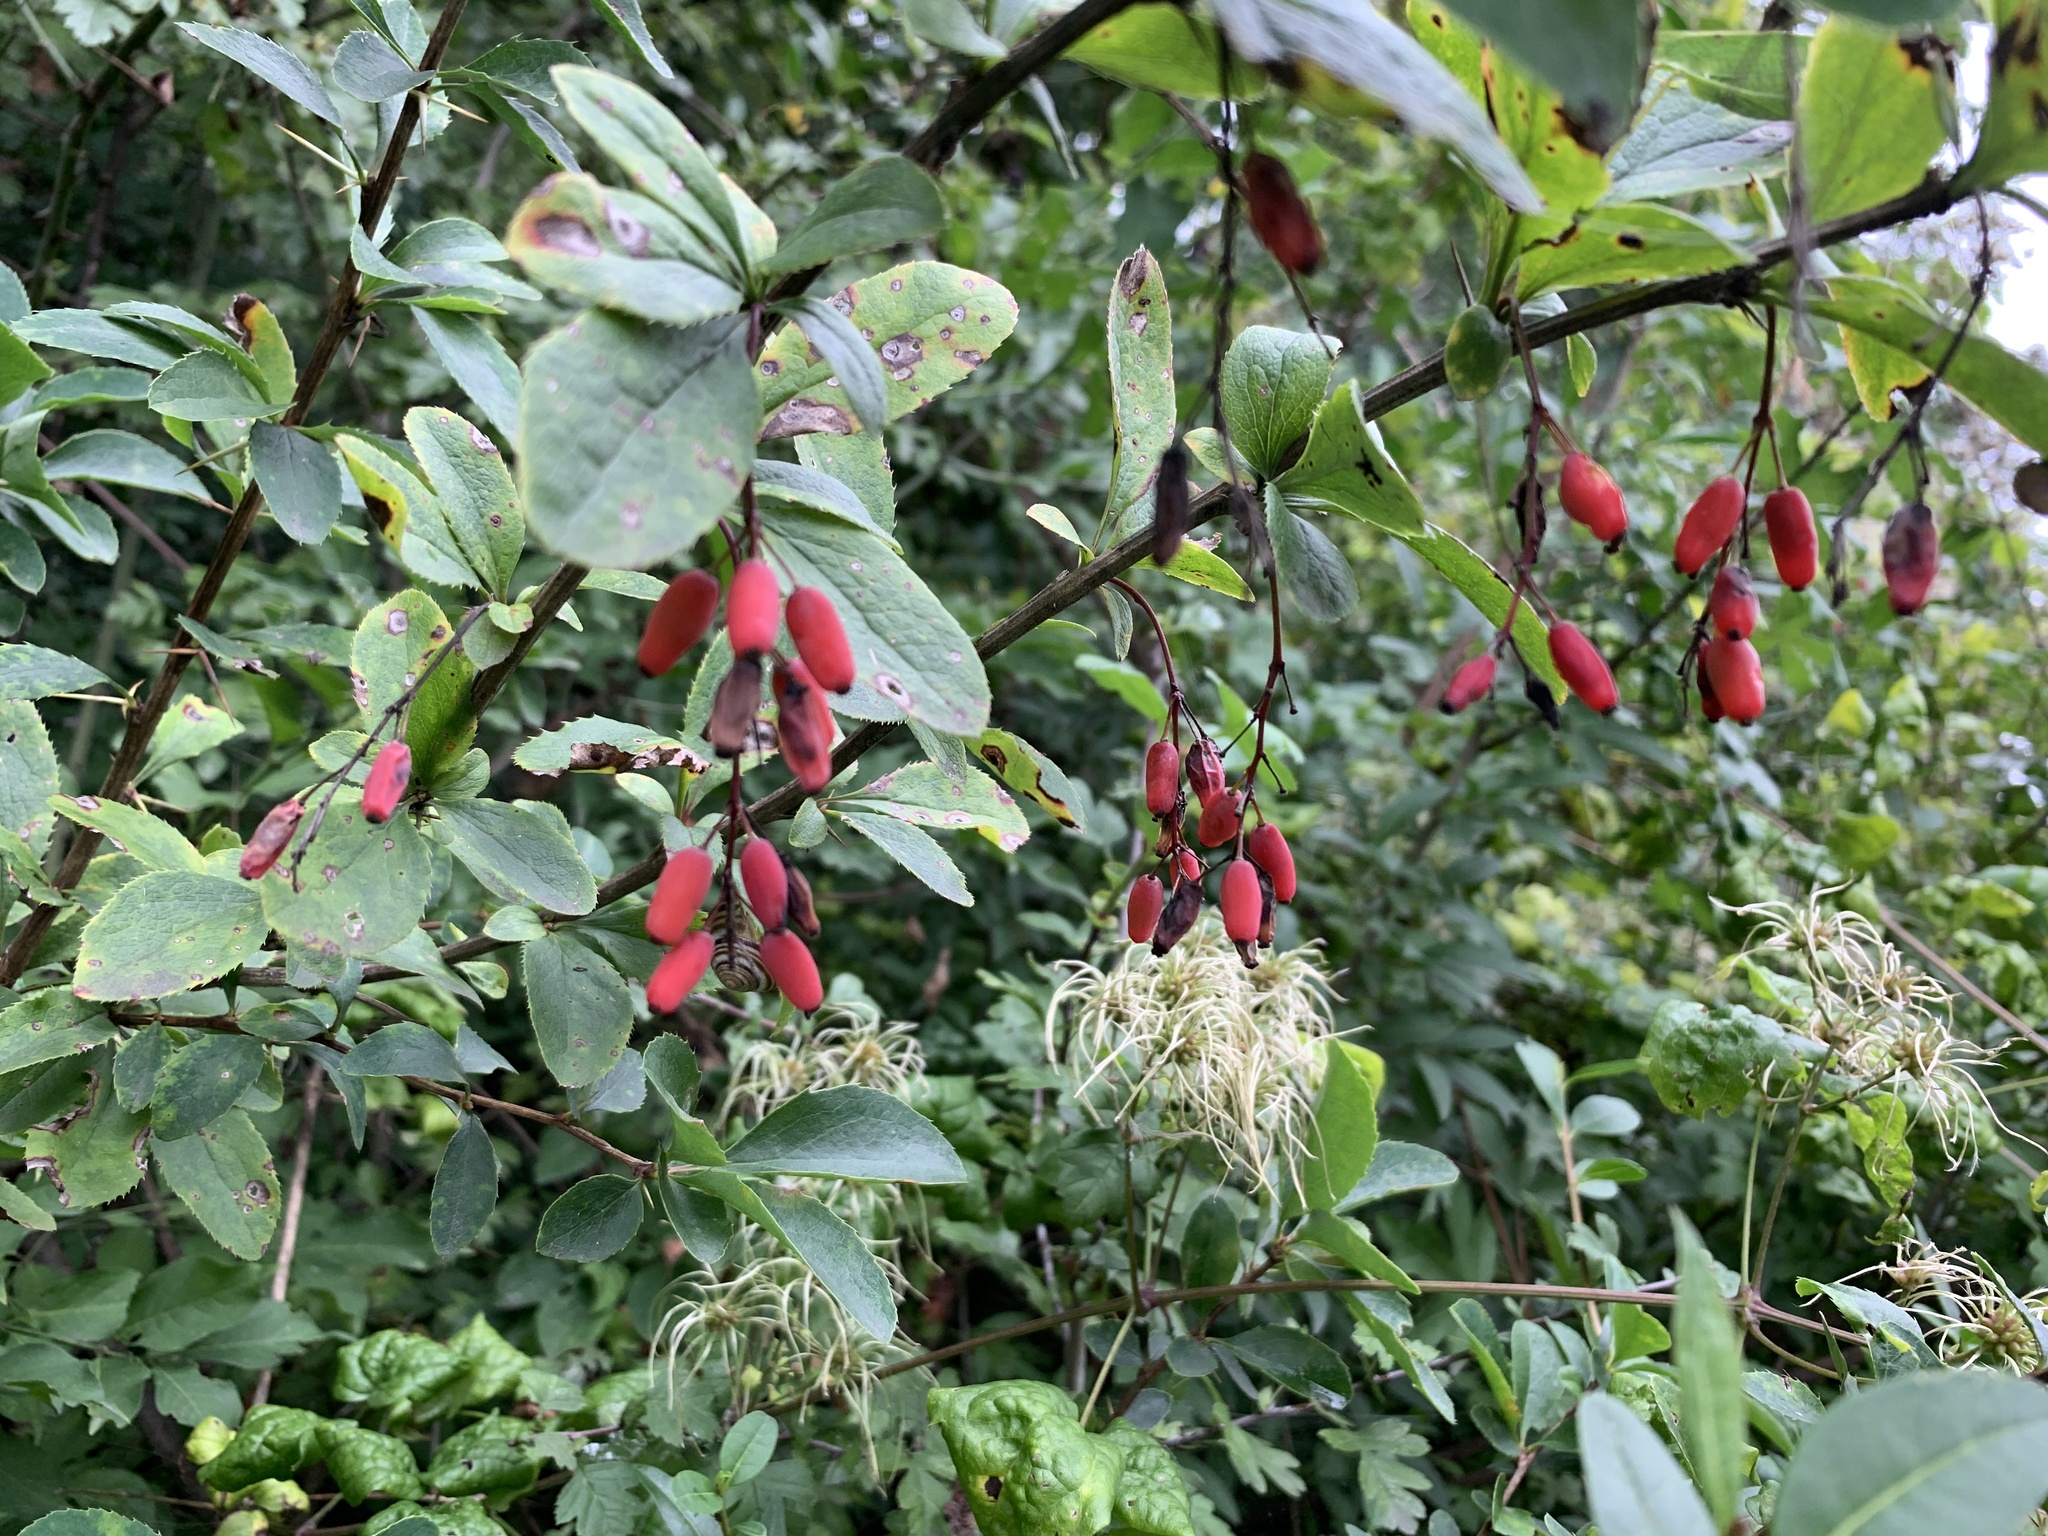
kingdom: Plantae
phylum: Tracheophyta
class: Magnoliopsida
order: Ranunculales
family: Berberidaceae
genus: Berberis
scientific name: Berberis vulgaris
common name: Barberry
